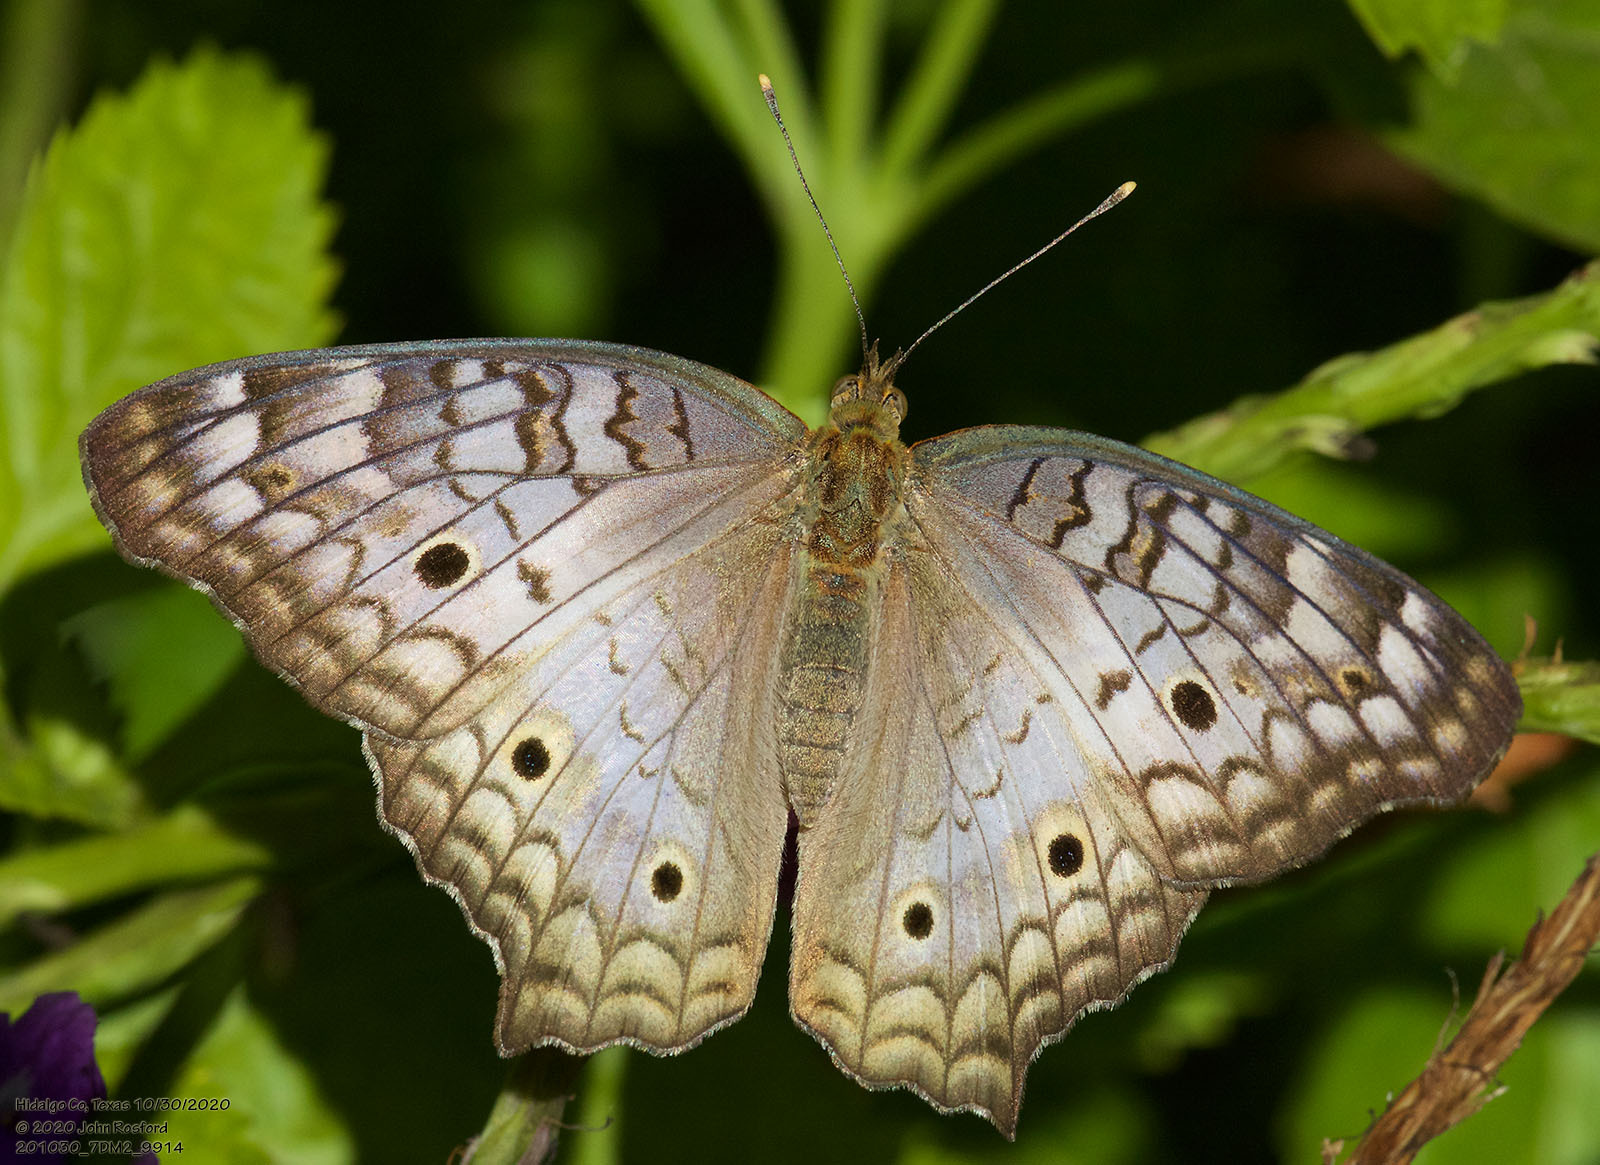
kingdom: Animalia
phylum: Arthropoda
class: Insecta
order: Lepidoptera
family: Nymphalidae
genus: Anartia
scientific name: Anartia jatrophae
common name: White peacock
